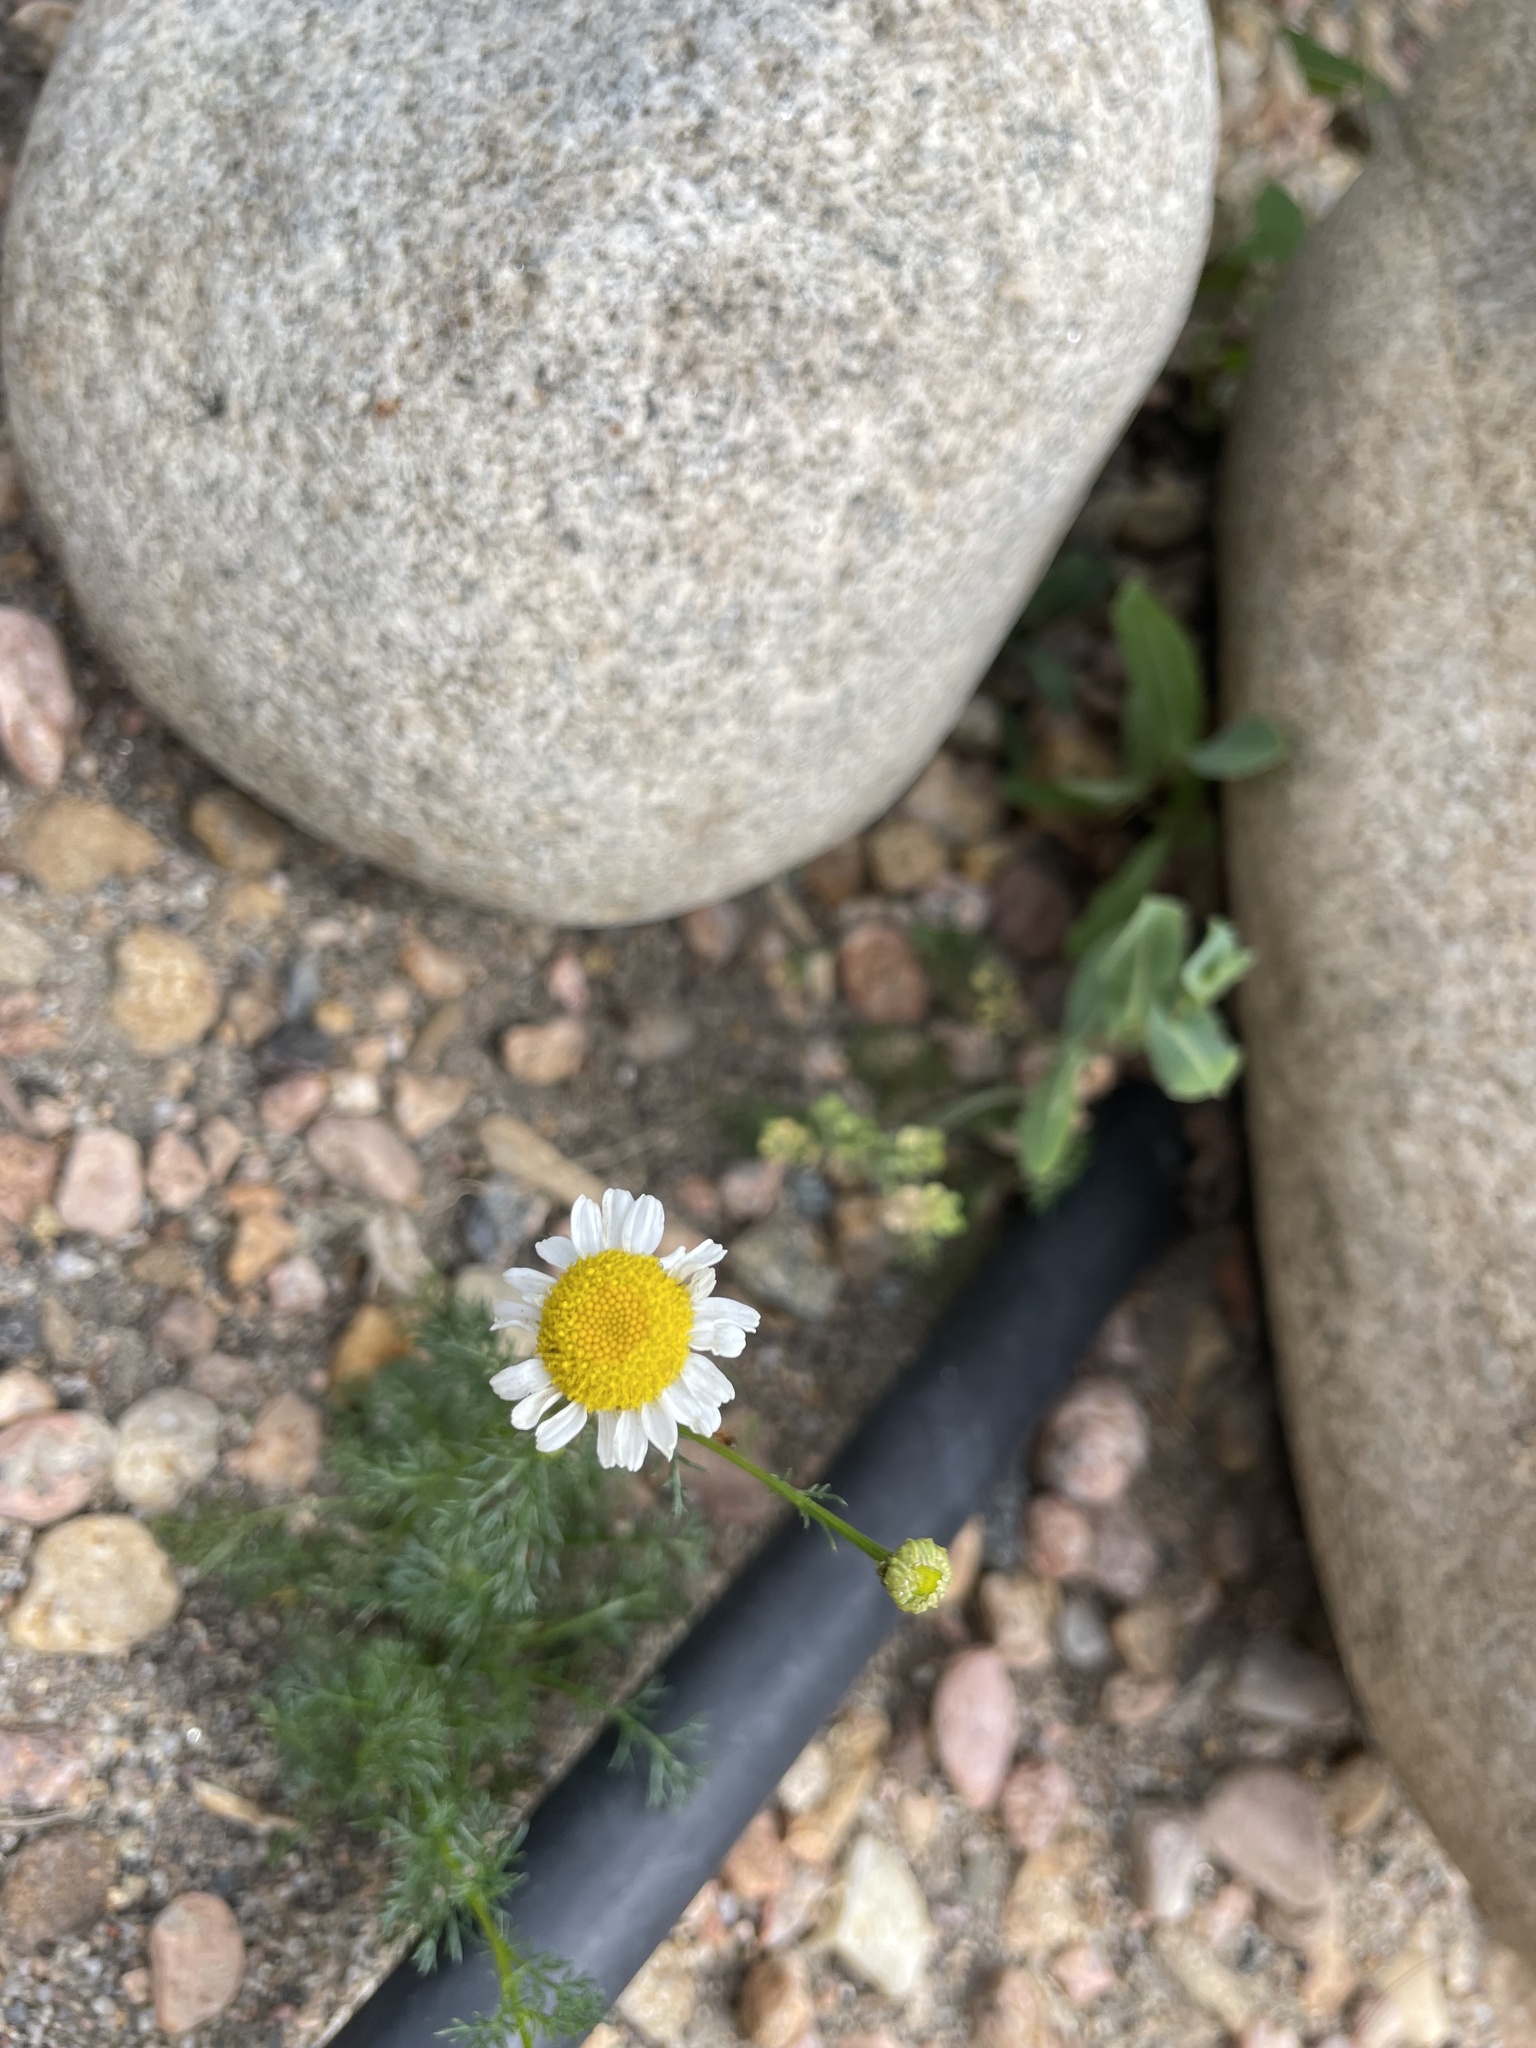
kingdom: Plantae
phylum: Tracheophyta
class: Magnoliopsida
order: Asterales
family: Asteraceae
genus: Tripleurospermum
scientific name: Tripleurospermum inodorum
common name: Scentless mayweed
